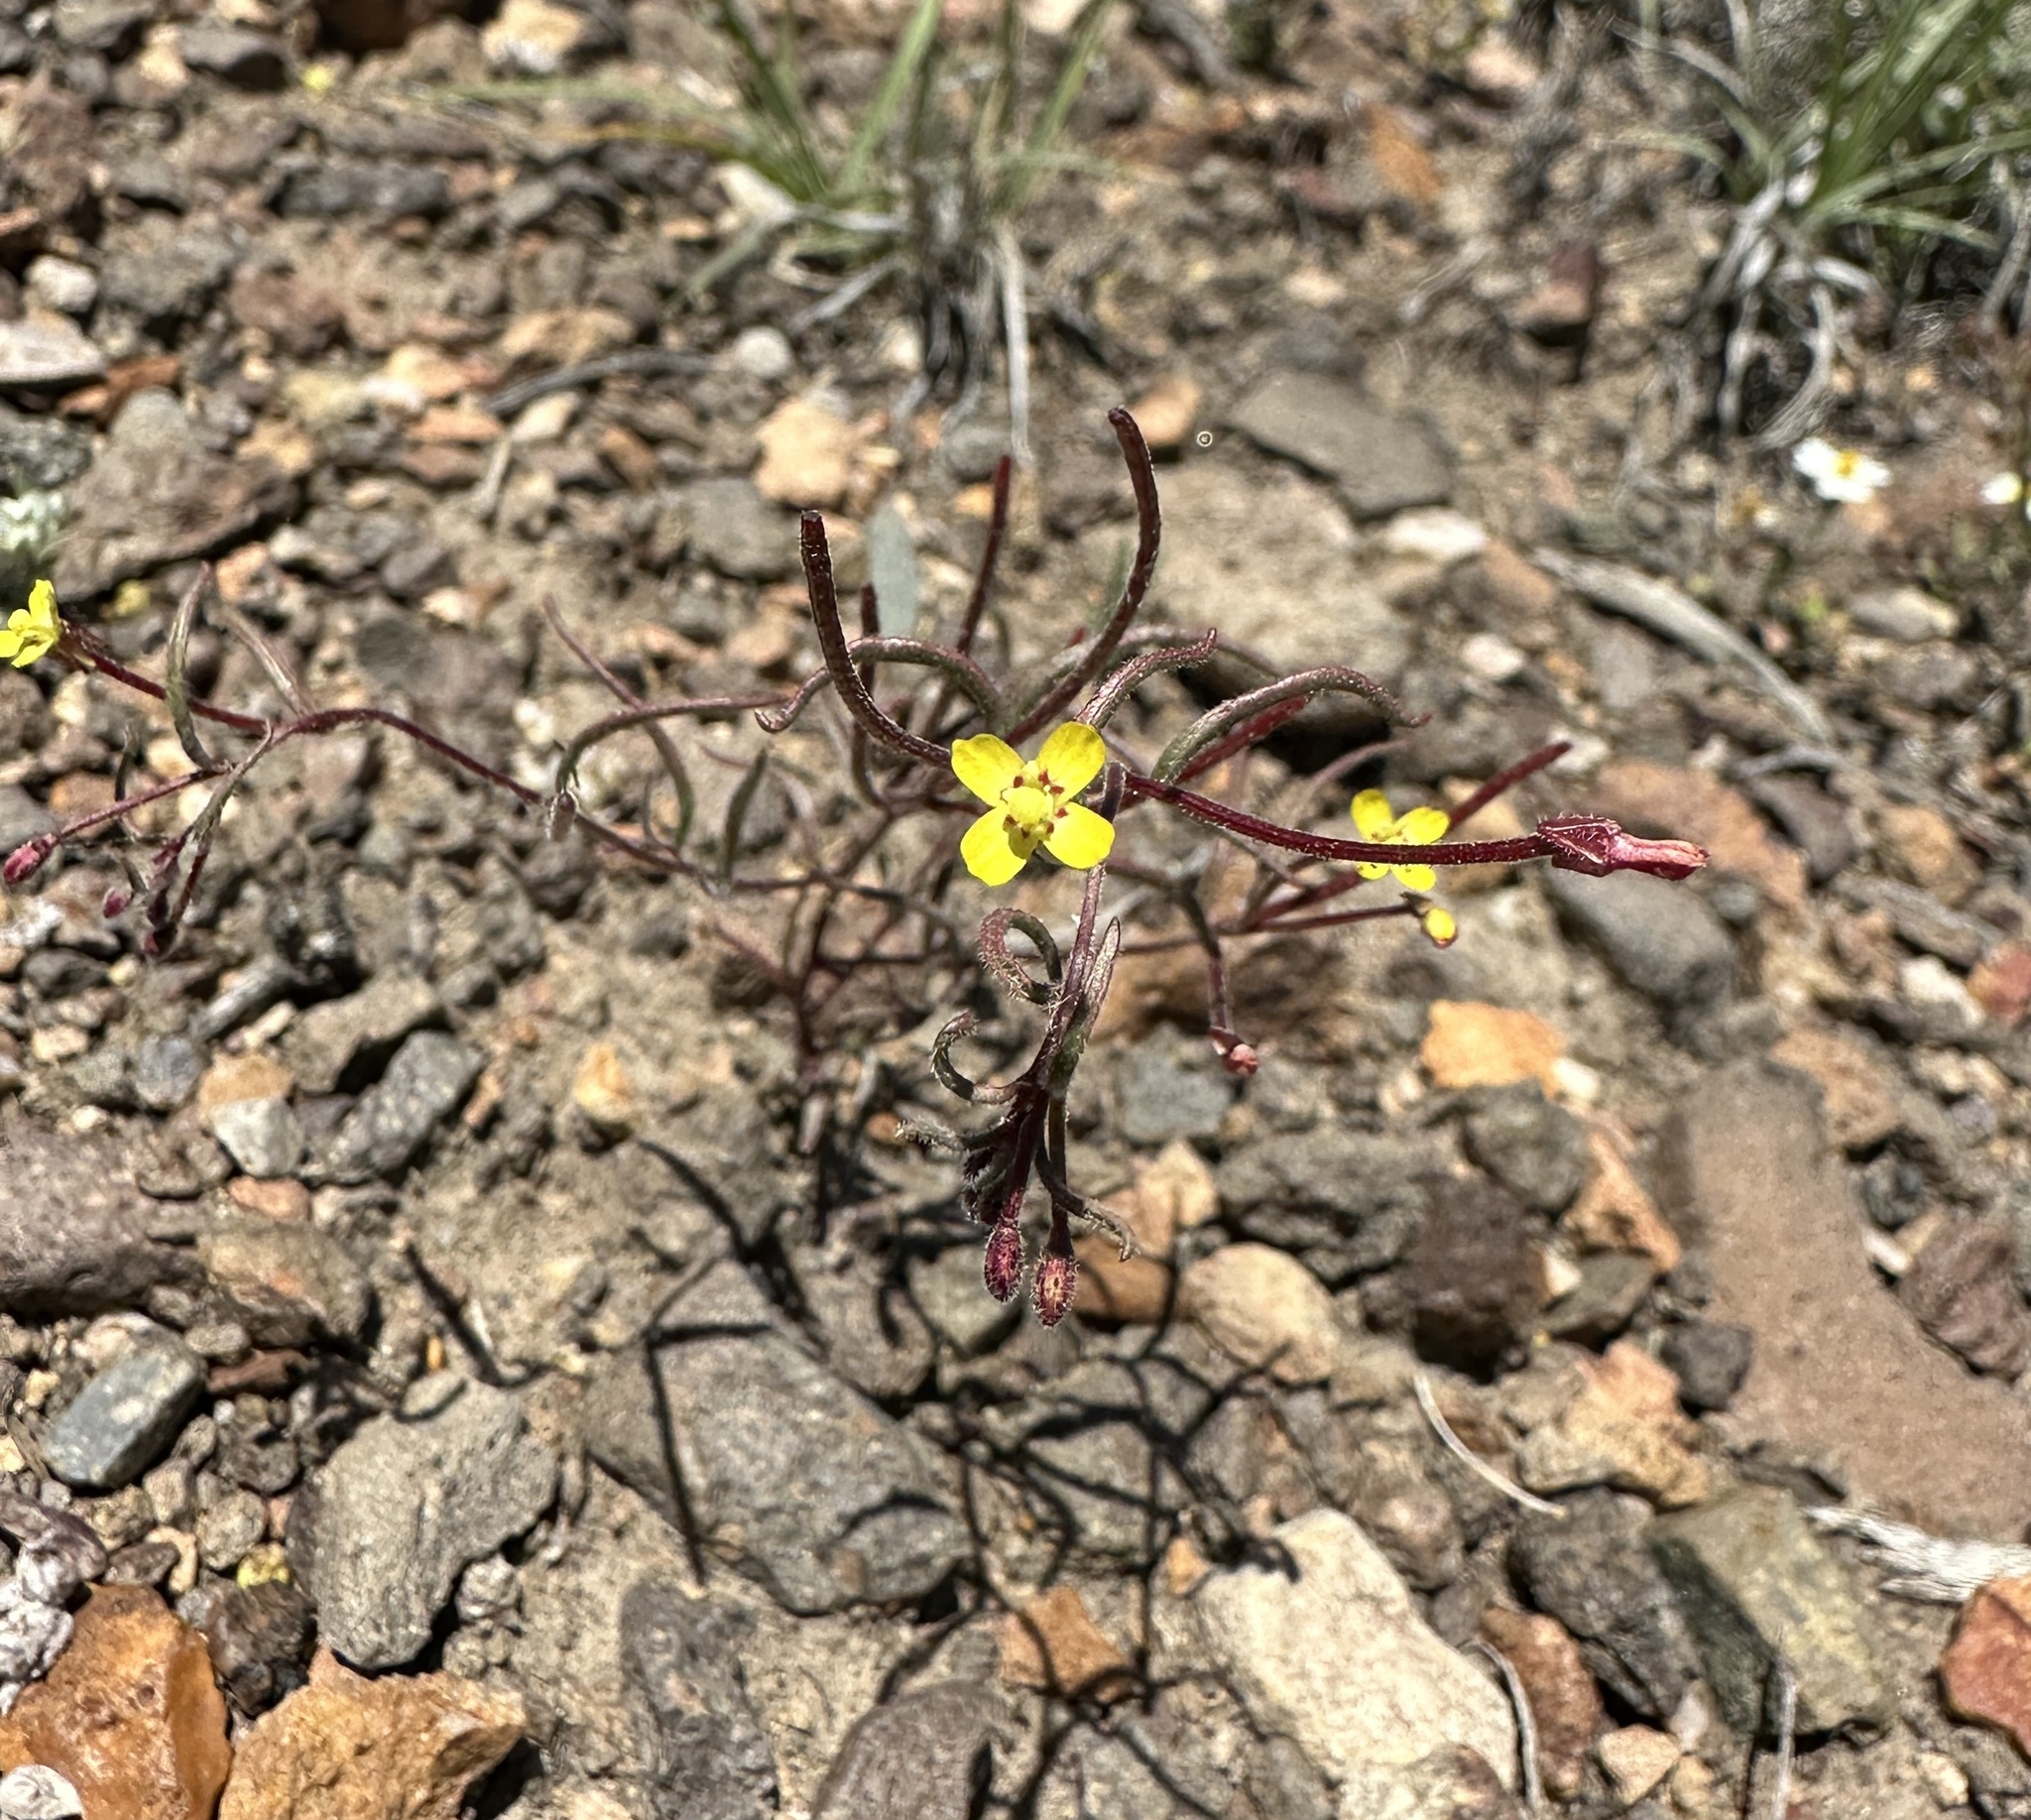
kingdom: Plantae
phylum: Tracheophyta
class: Magnoliopsida
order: Myrtales
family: Onagraceae
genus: Camissonia
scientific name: Camissonia parvula
